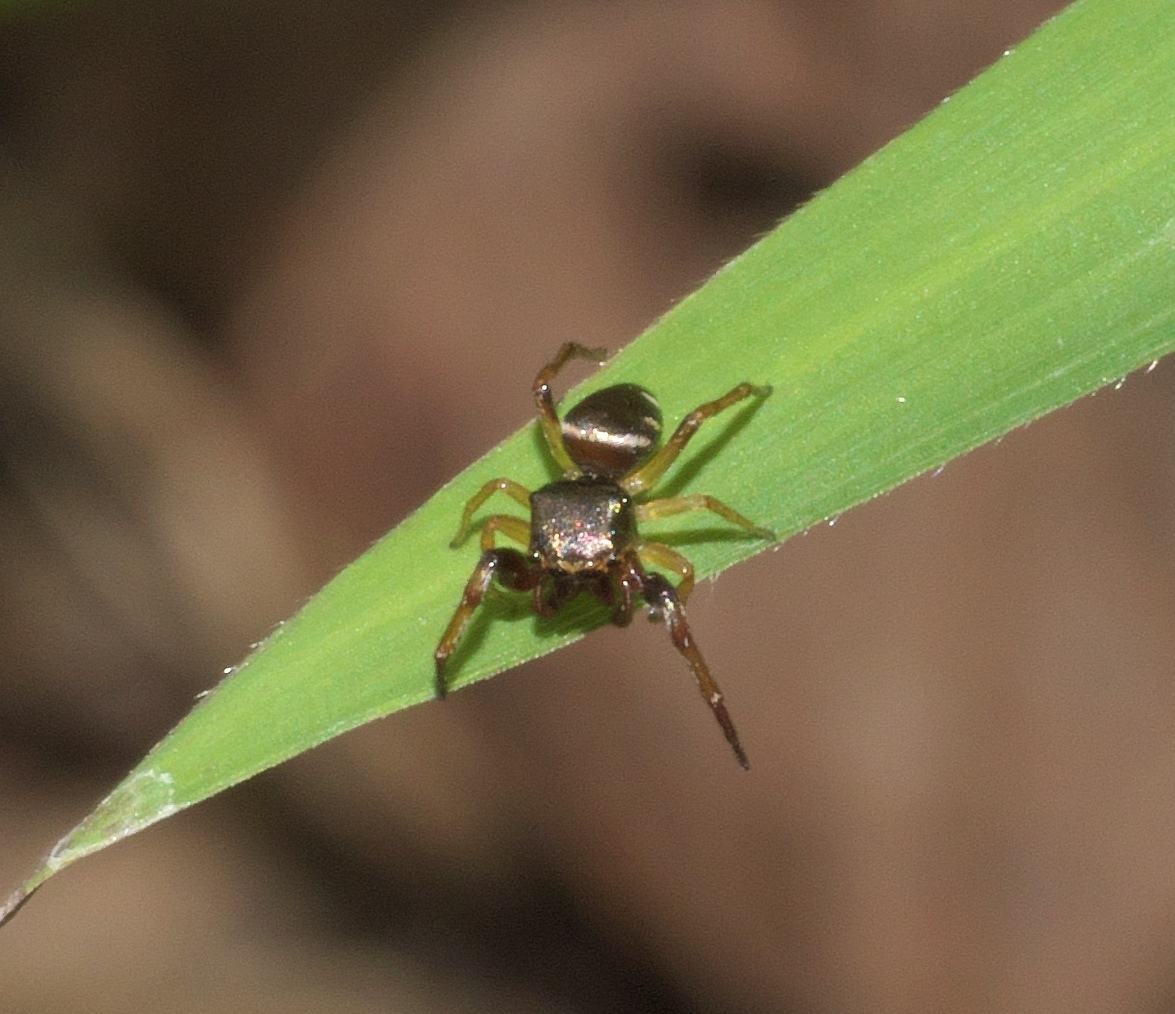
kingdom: Animalia
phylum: Arthropoda
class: Arachnida
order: Araneae
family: Salticidae
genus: Zygoballus
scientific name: Zygoballus rufipes
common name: Jumping spiders
